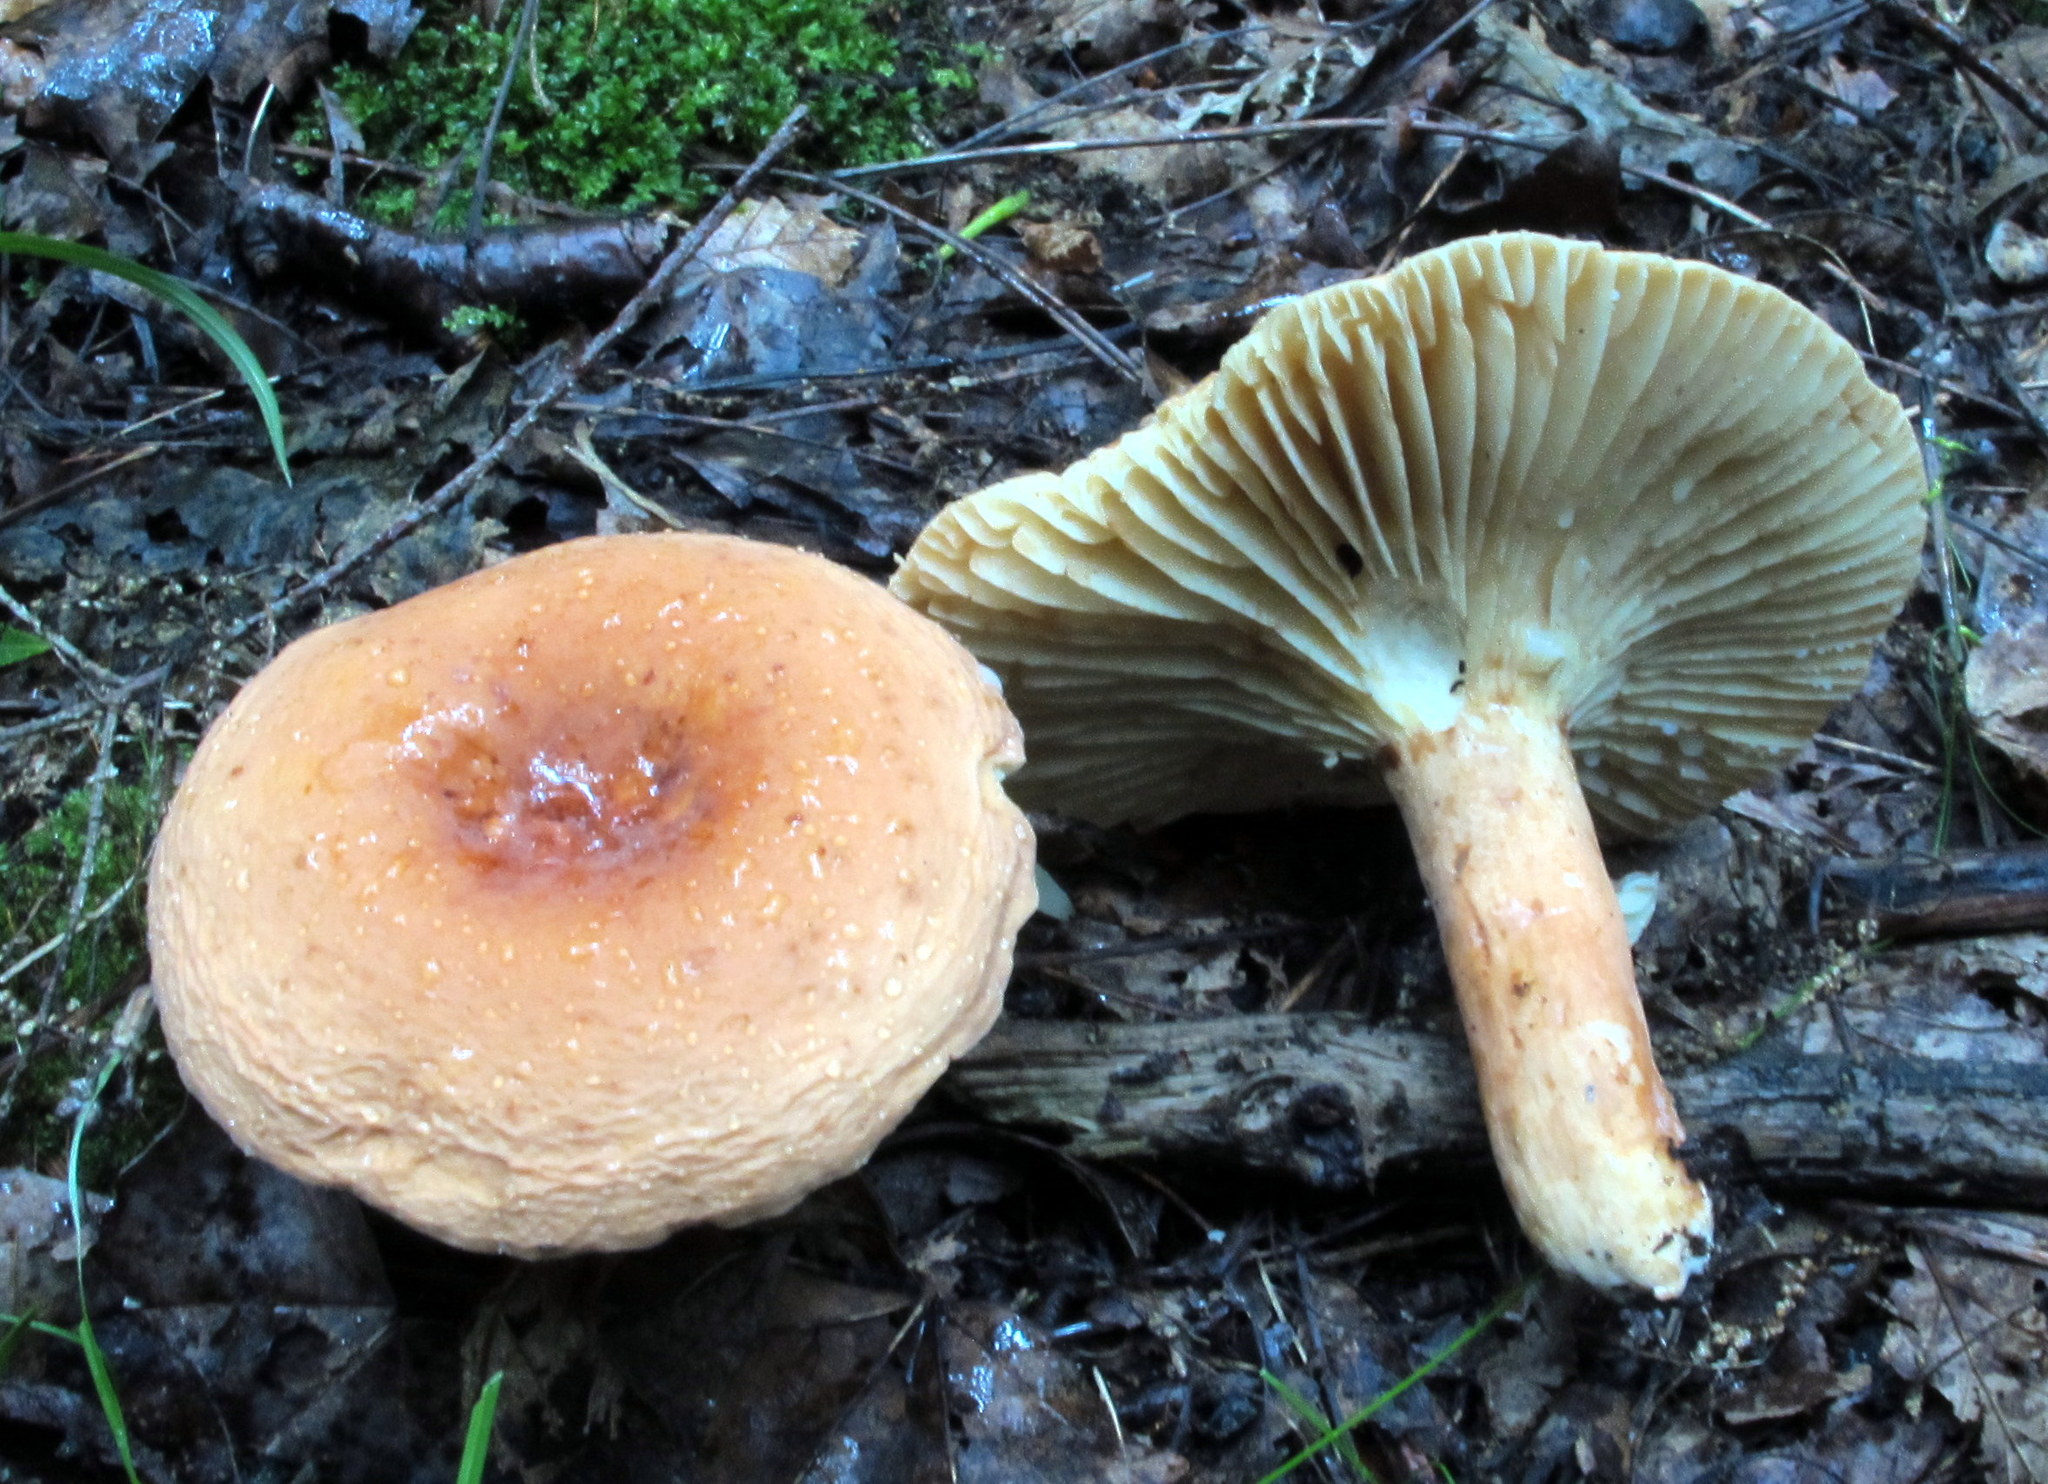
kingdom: Fungi
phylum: Basidiomycota
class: Agaricomycetes
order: Russulales
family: Russulaceae
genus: Lactarius
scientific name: Lactarius hygrophoroides
